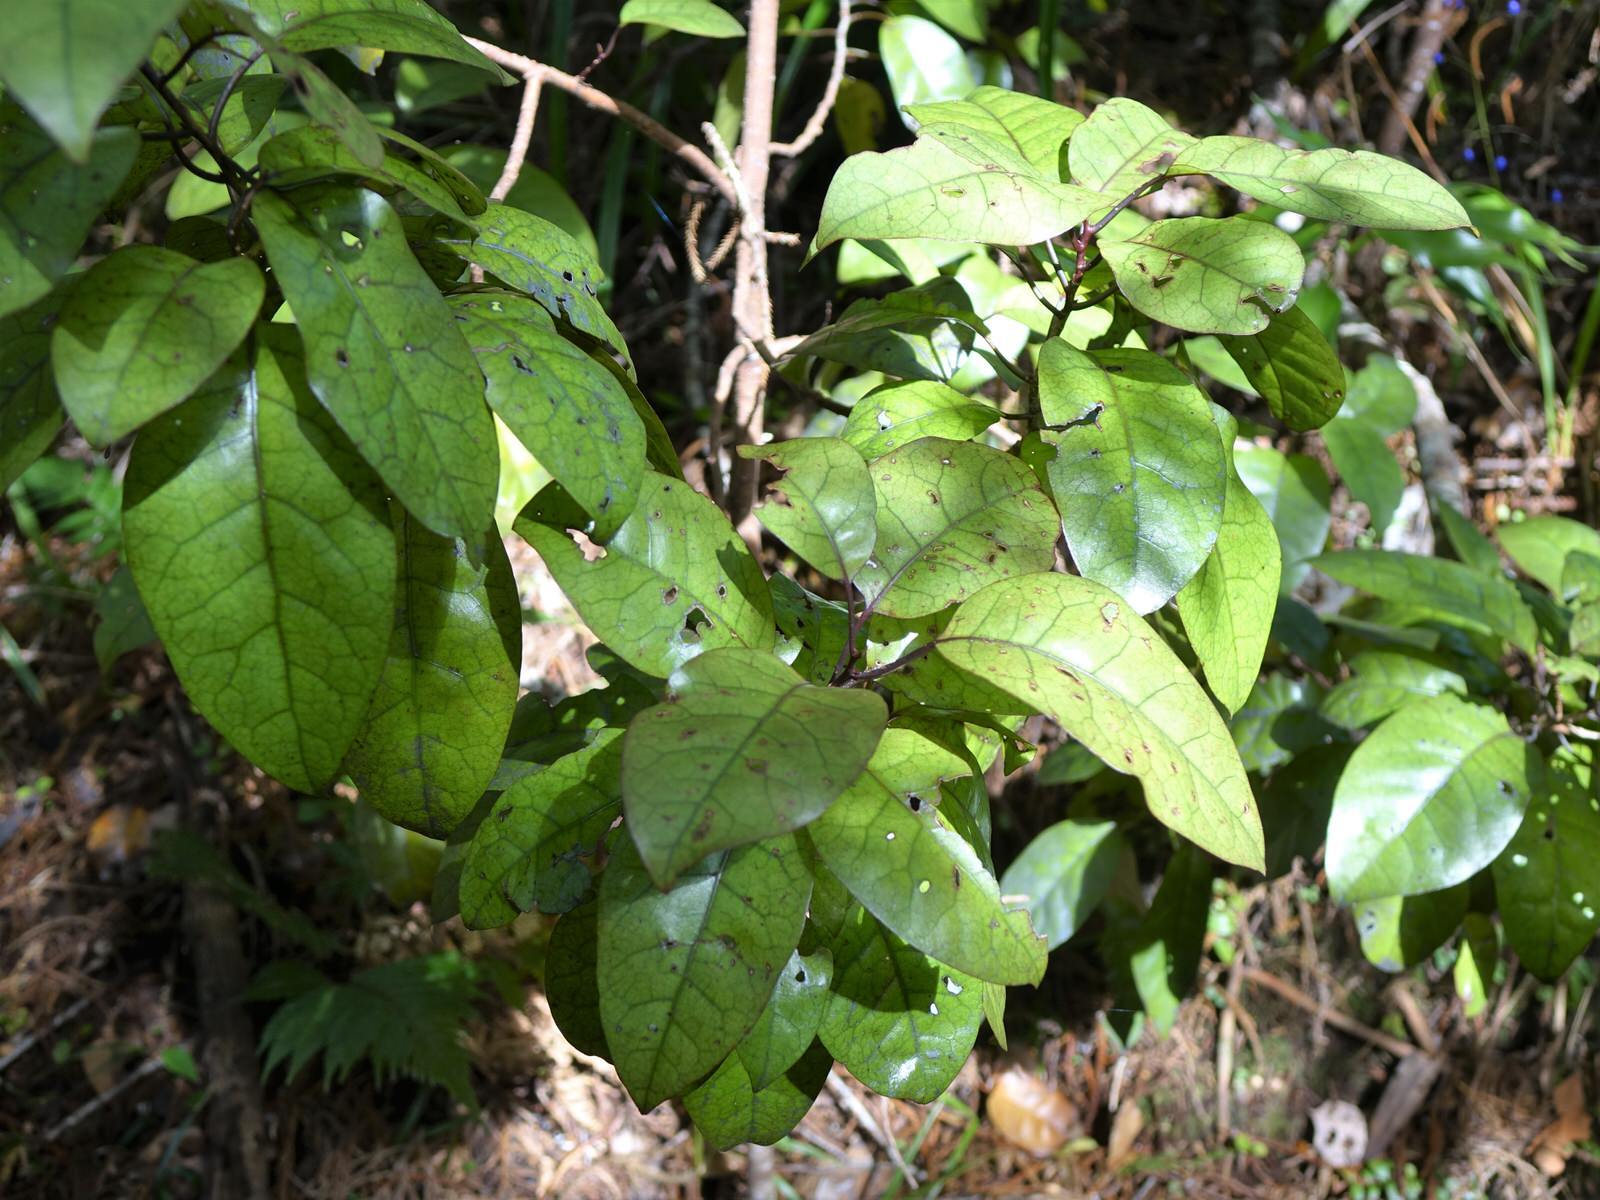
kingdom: Plantae
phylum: Tracheophyta
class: Magnoliopsida
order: Laurales
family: Lauraceae
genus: Litsea
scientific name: Litsea calicaris
